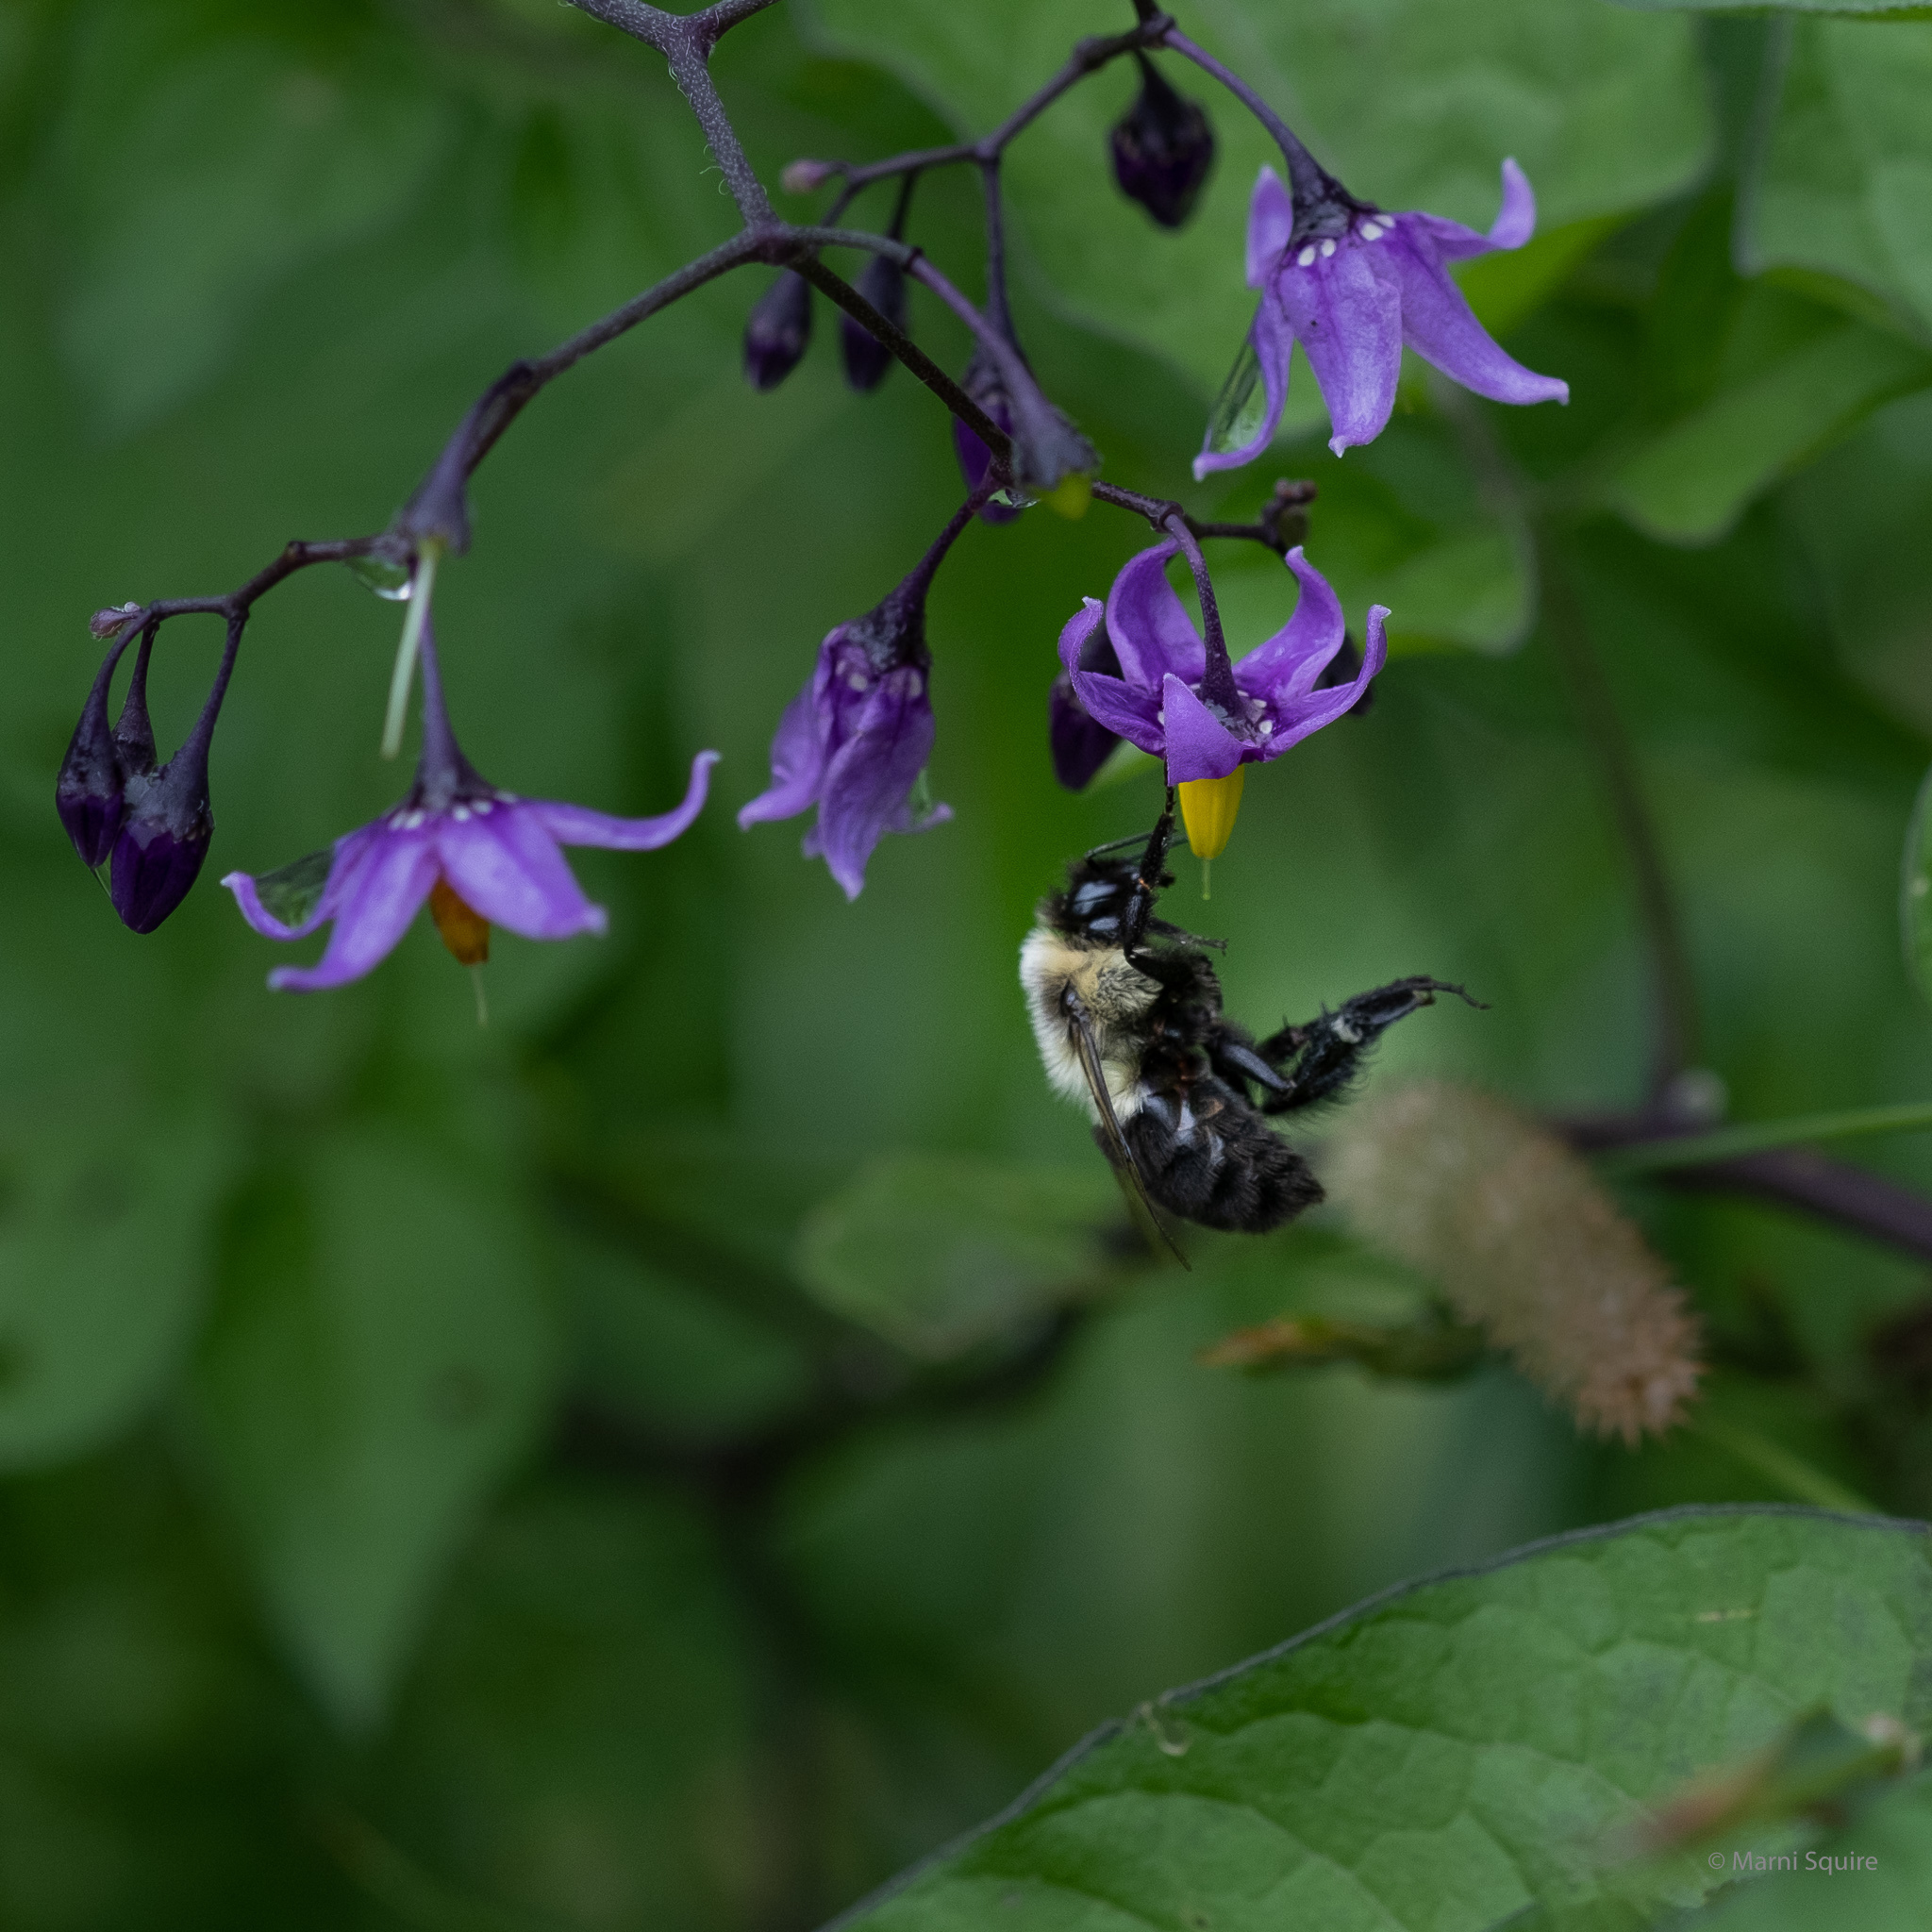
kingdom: Animalia
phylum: Arthropoda
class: Insecta
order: Hymenoptera
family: Apidae
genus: Bombus
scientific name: Bombus impatiens
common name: Common eastern bumble bee
